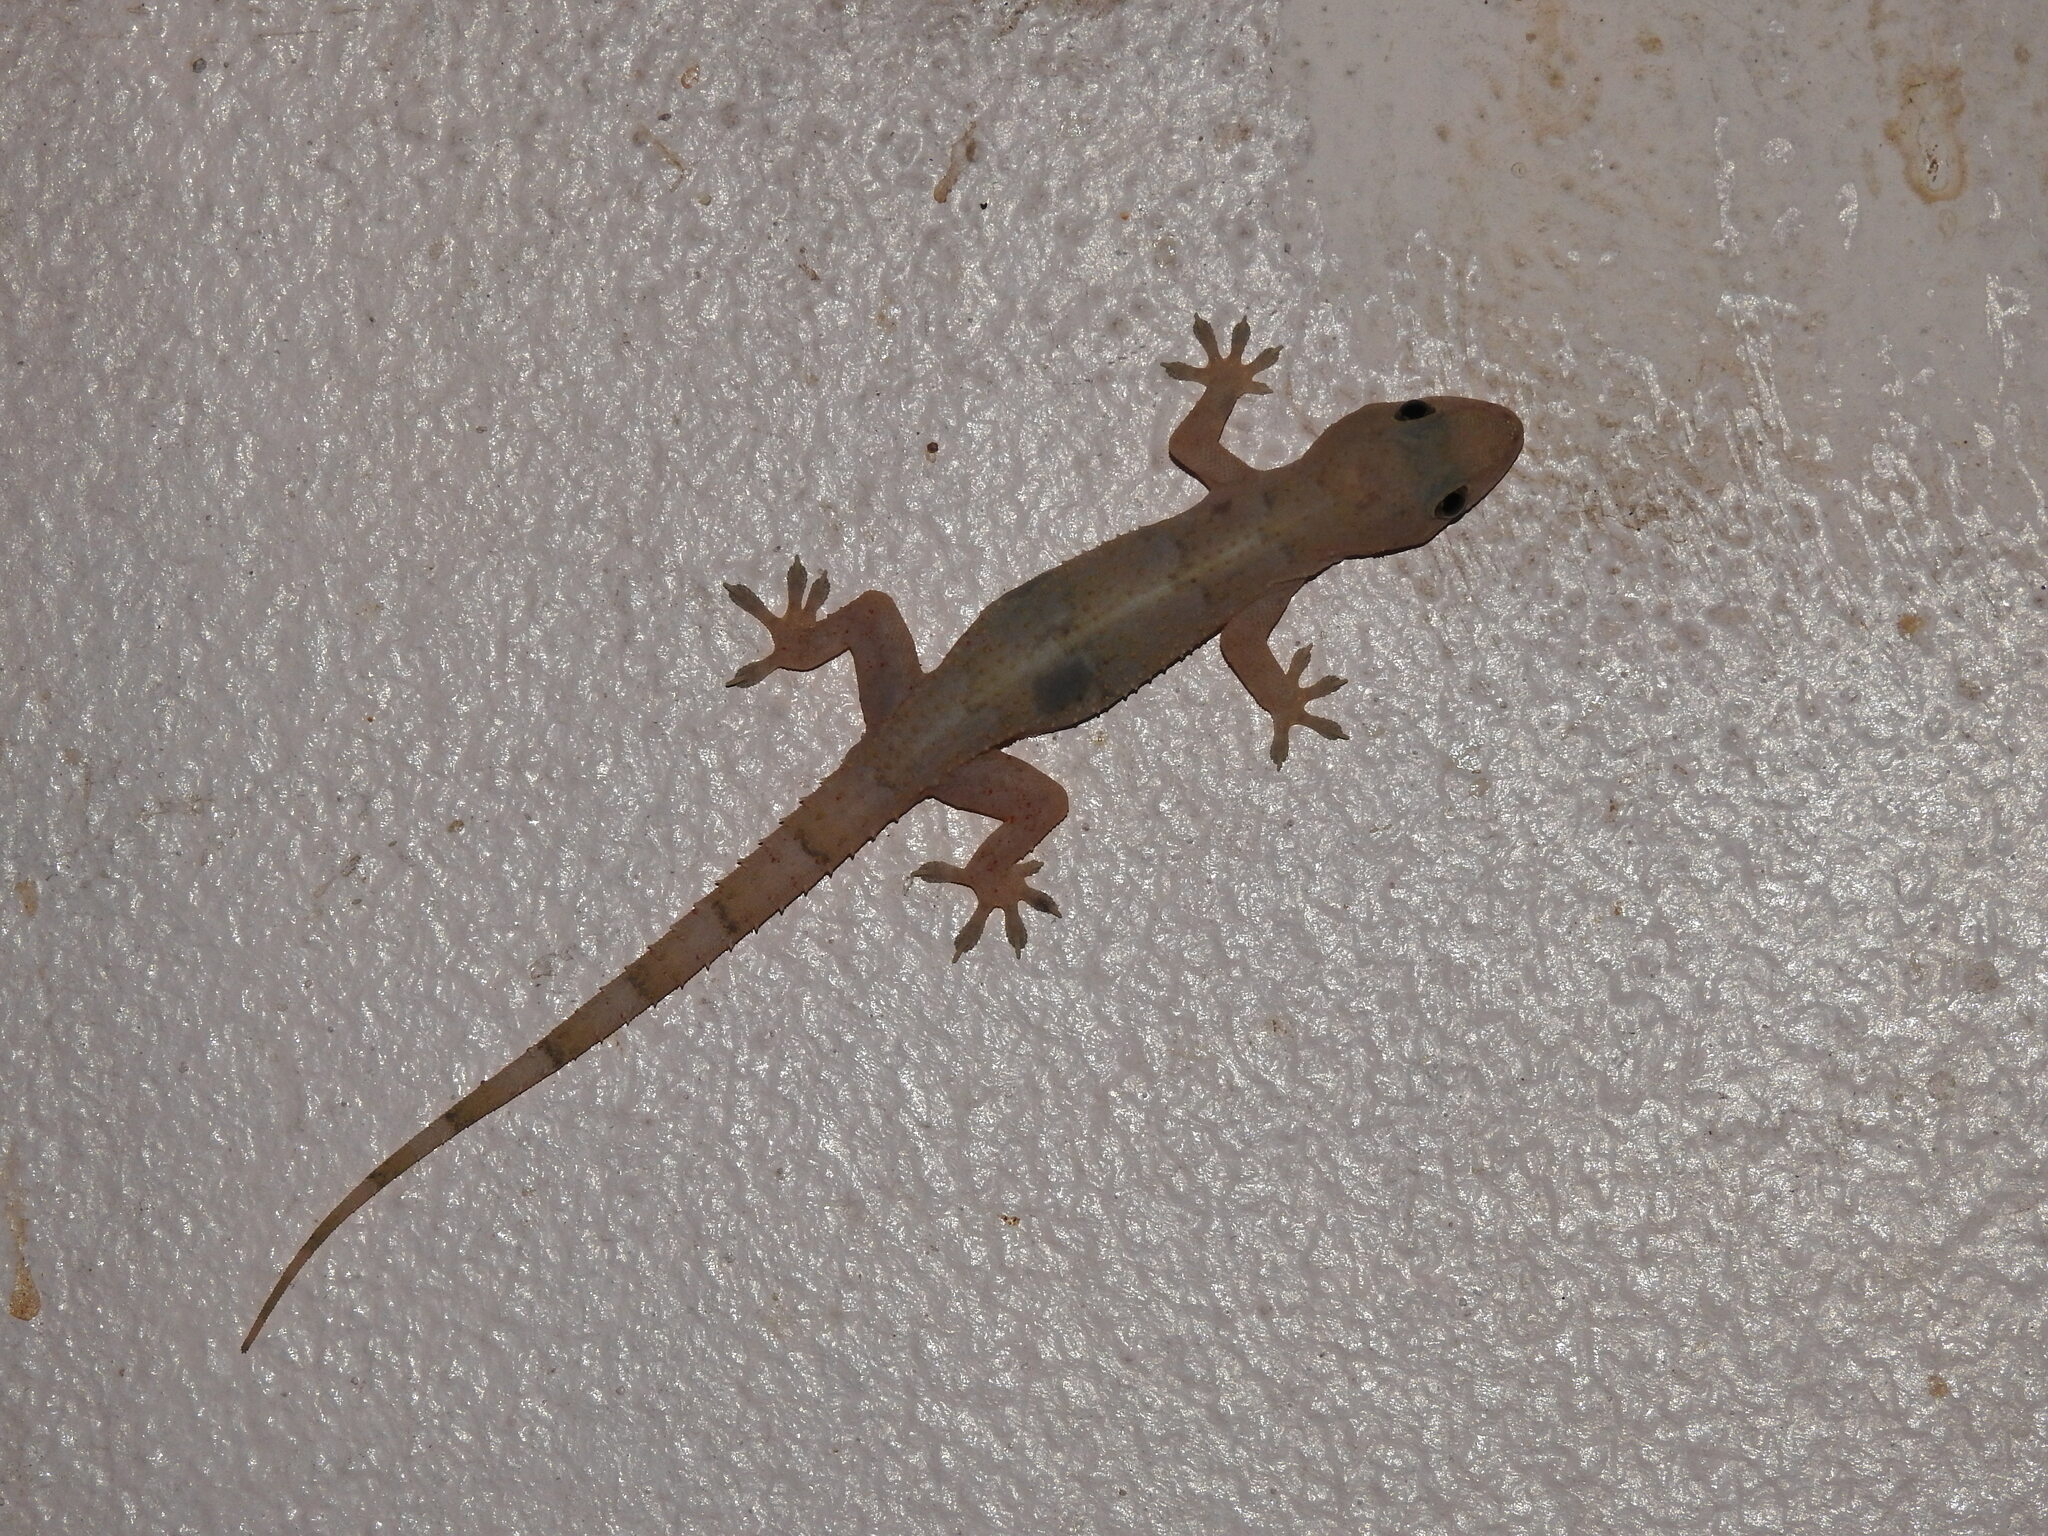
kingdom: Animalia
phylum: Chordata
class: Squamata
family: Gekkonidae
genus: Hemidactylus
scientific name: Hemidactylus mabouia
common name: House gecko
